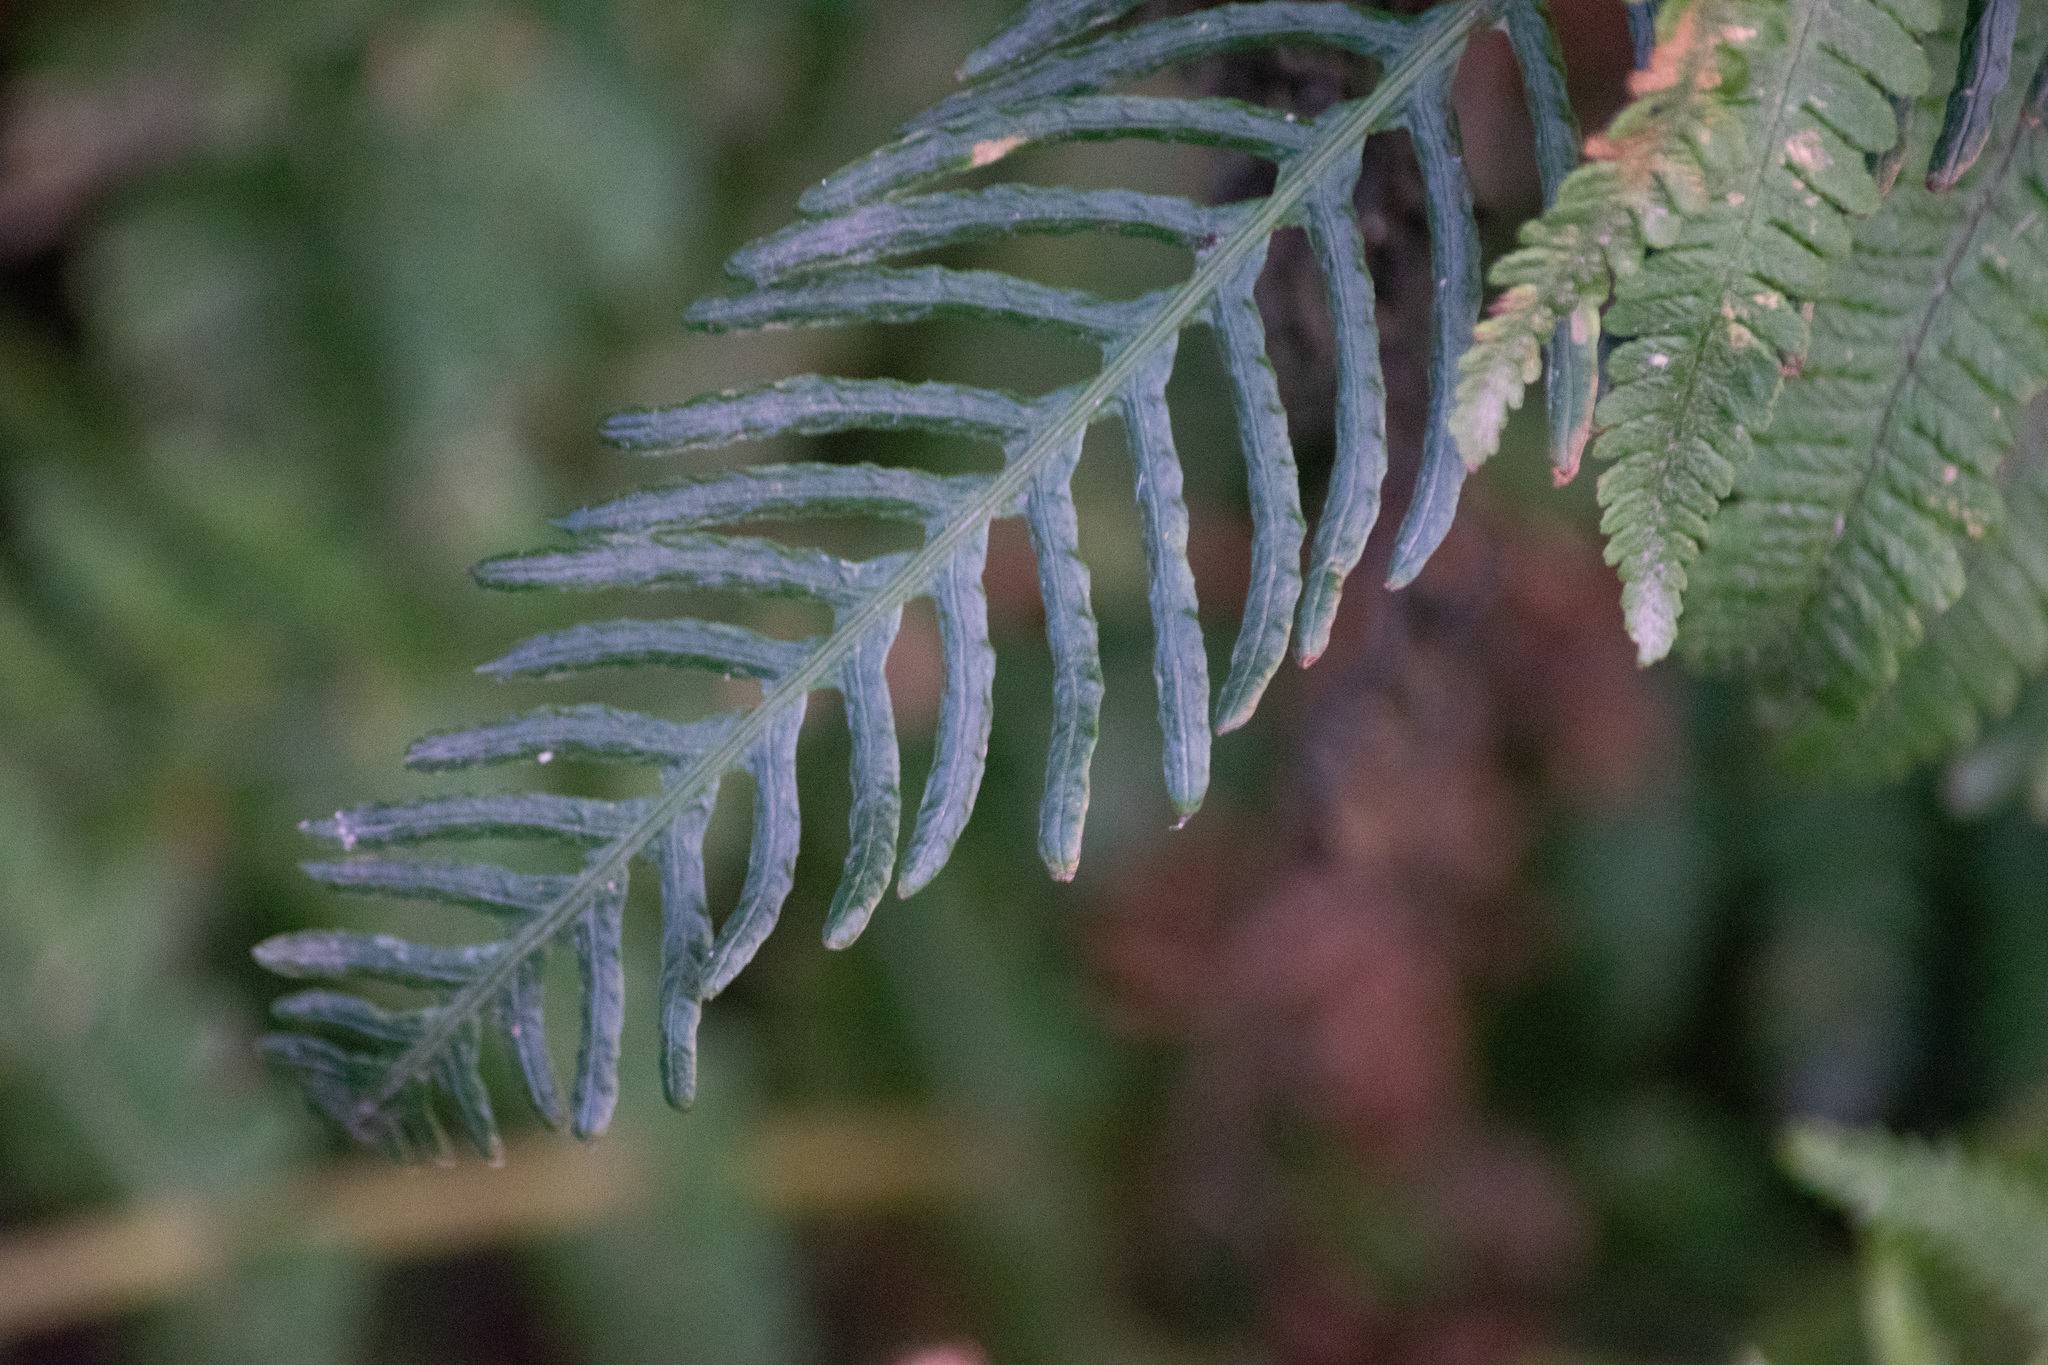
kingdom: Plantae
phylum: Tracheophyta
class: Polypodiopsida
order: Polypodiales
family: Blechnaceae
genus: Struthiopteris
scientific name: Struthiopteris spicant
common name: Deer fern
